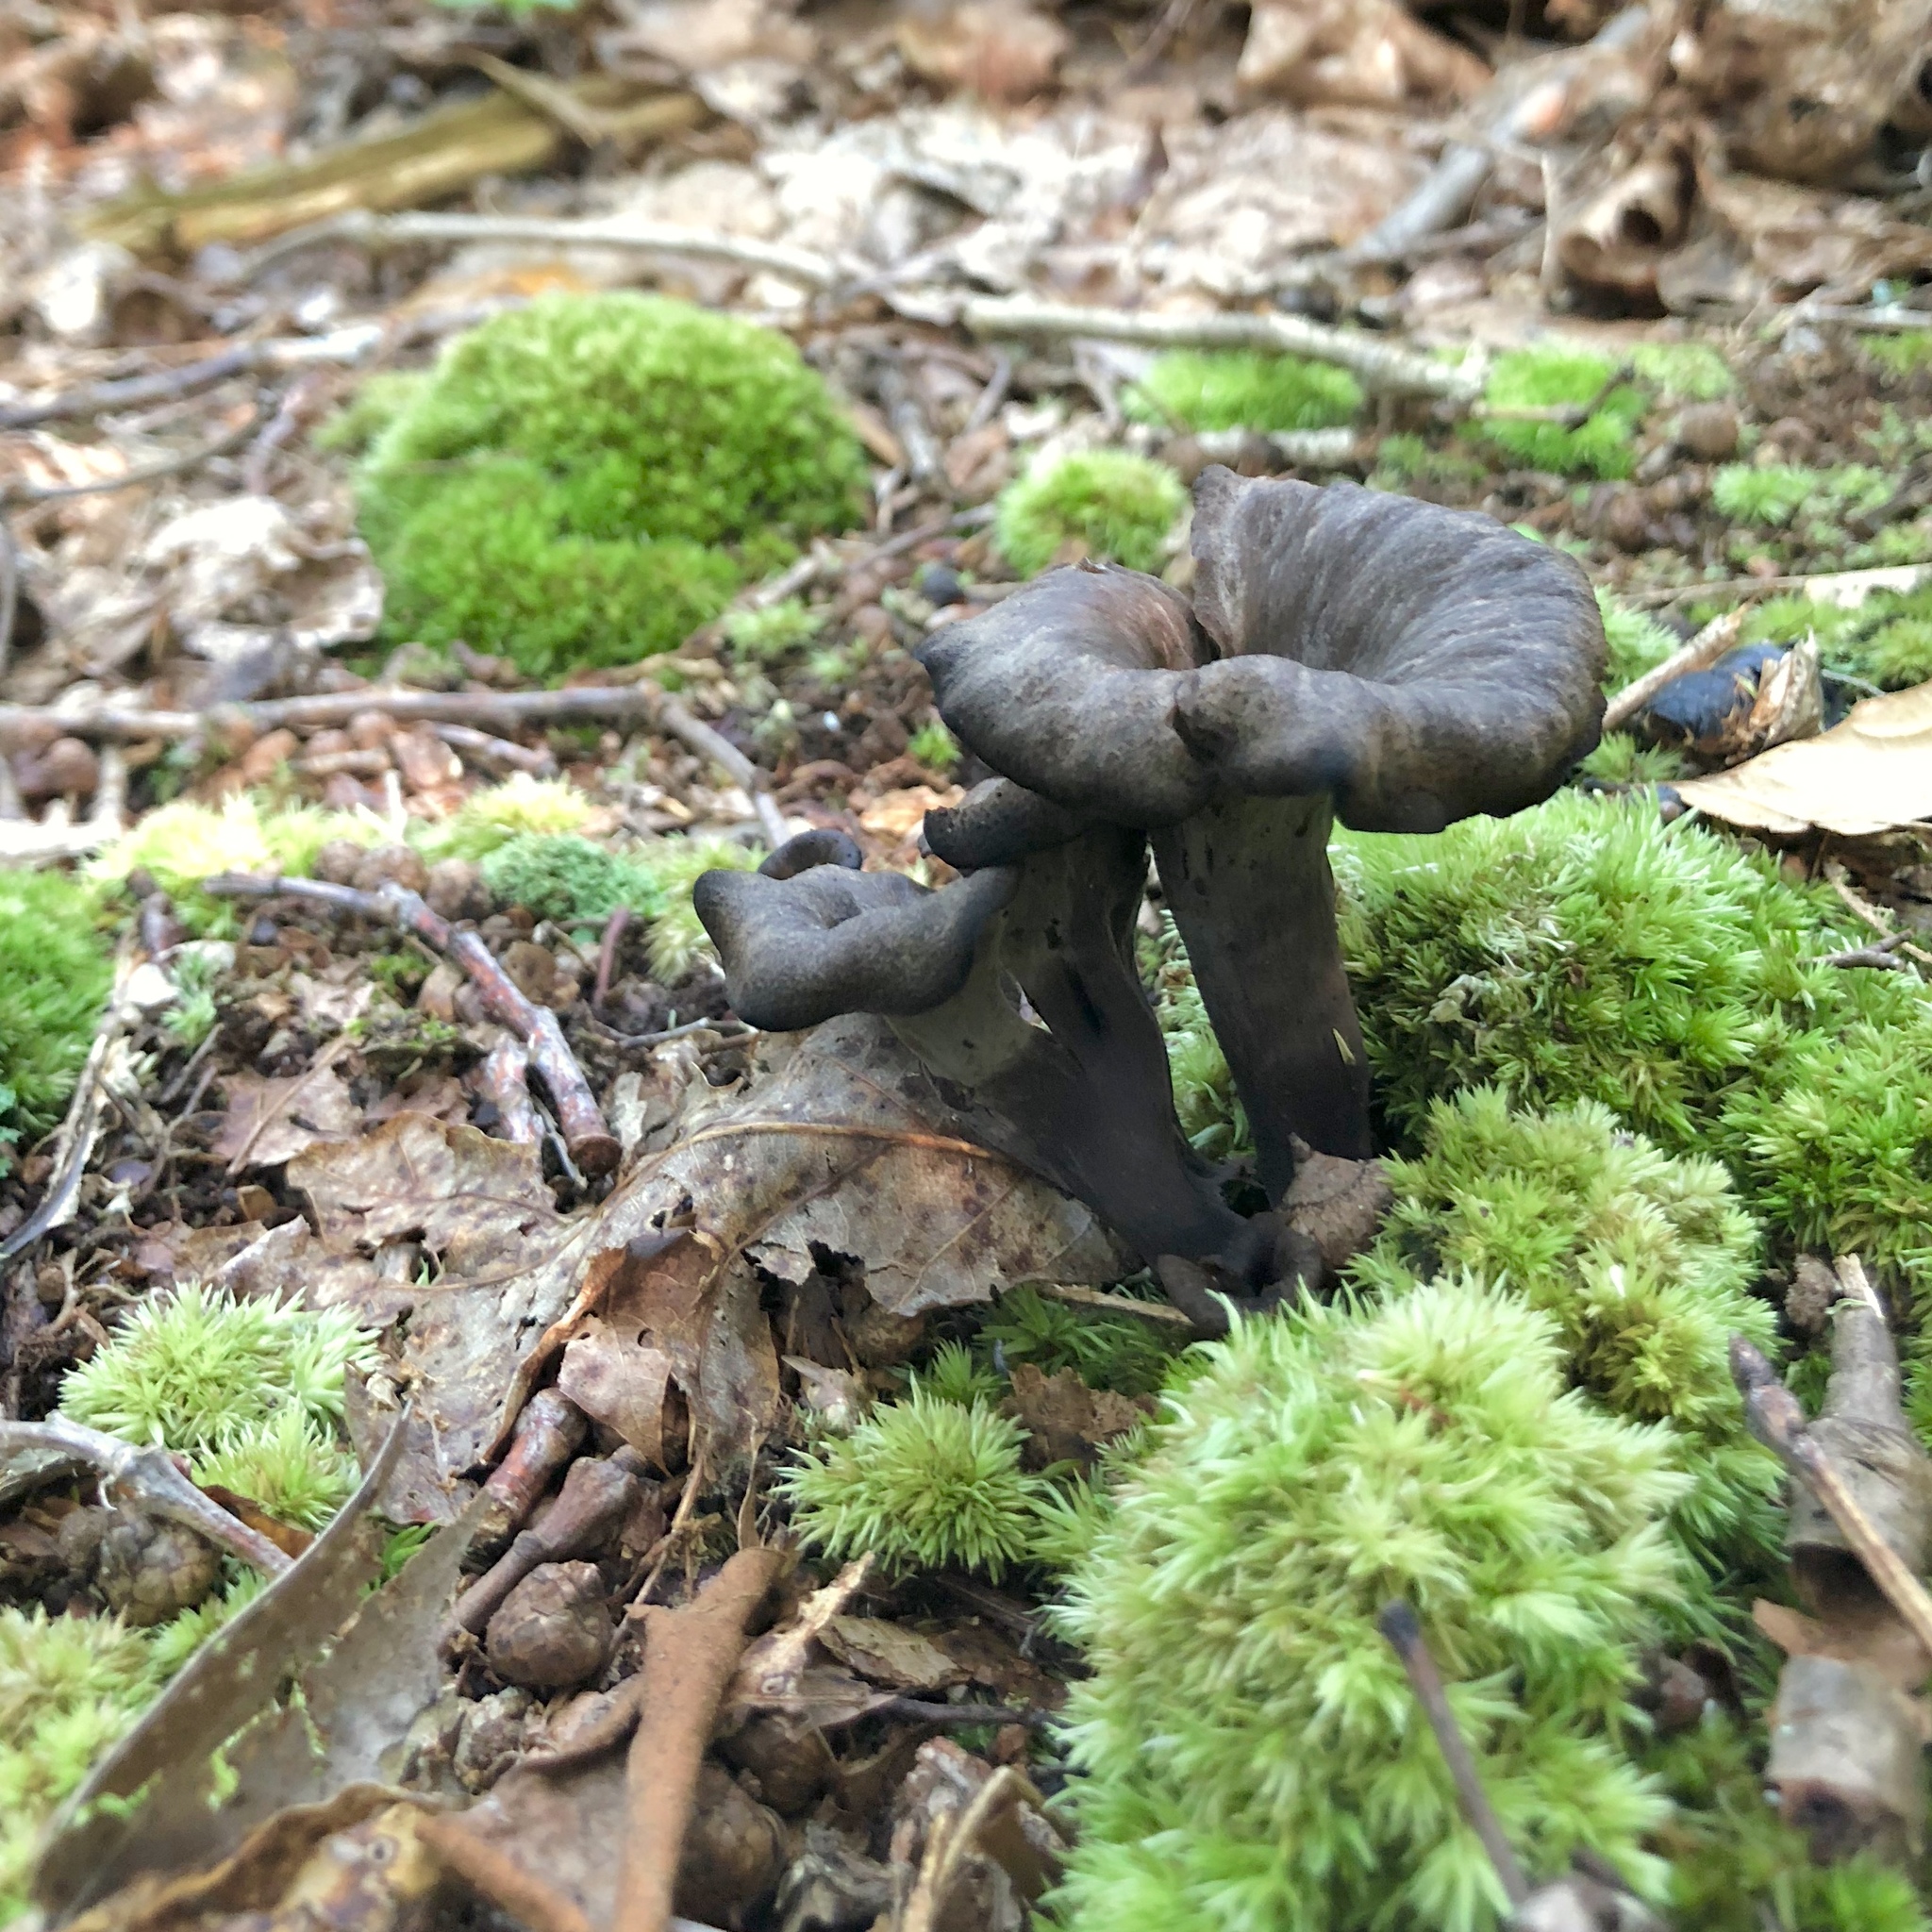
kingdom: Fungi
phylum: Basidiomycota
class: Agaricomycetes
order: Cantharellales
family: Hydnaceae
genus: Craterellus
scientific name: Craterellus cornucopioides
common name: Horn of plenty
